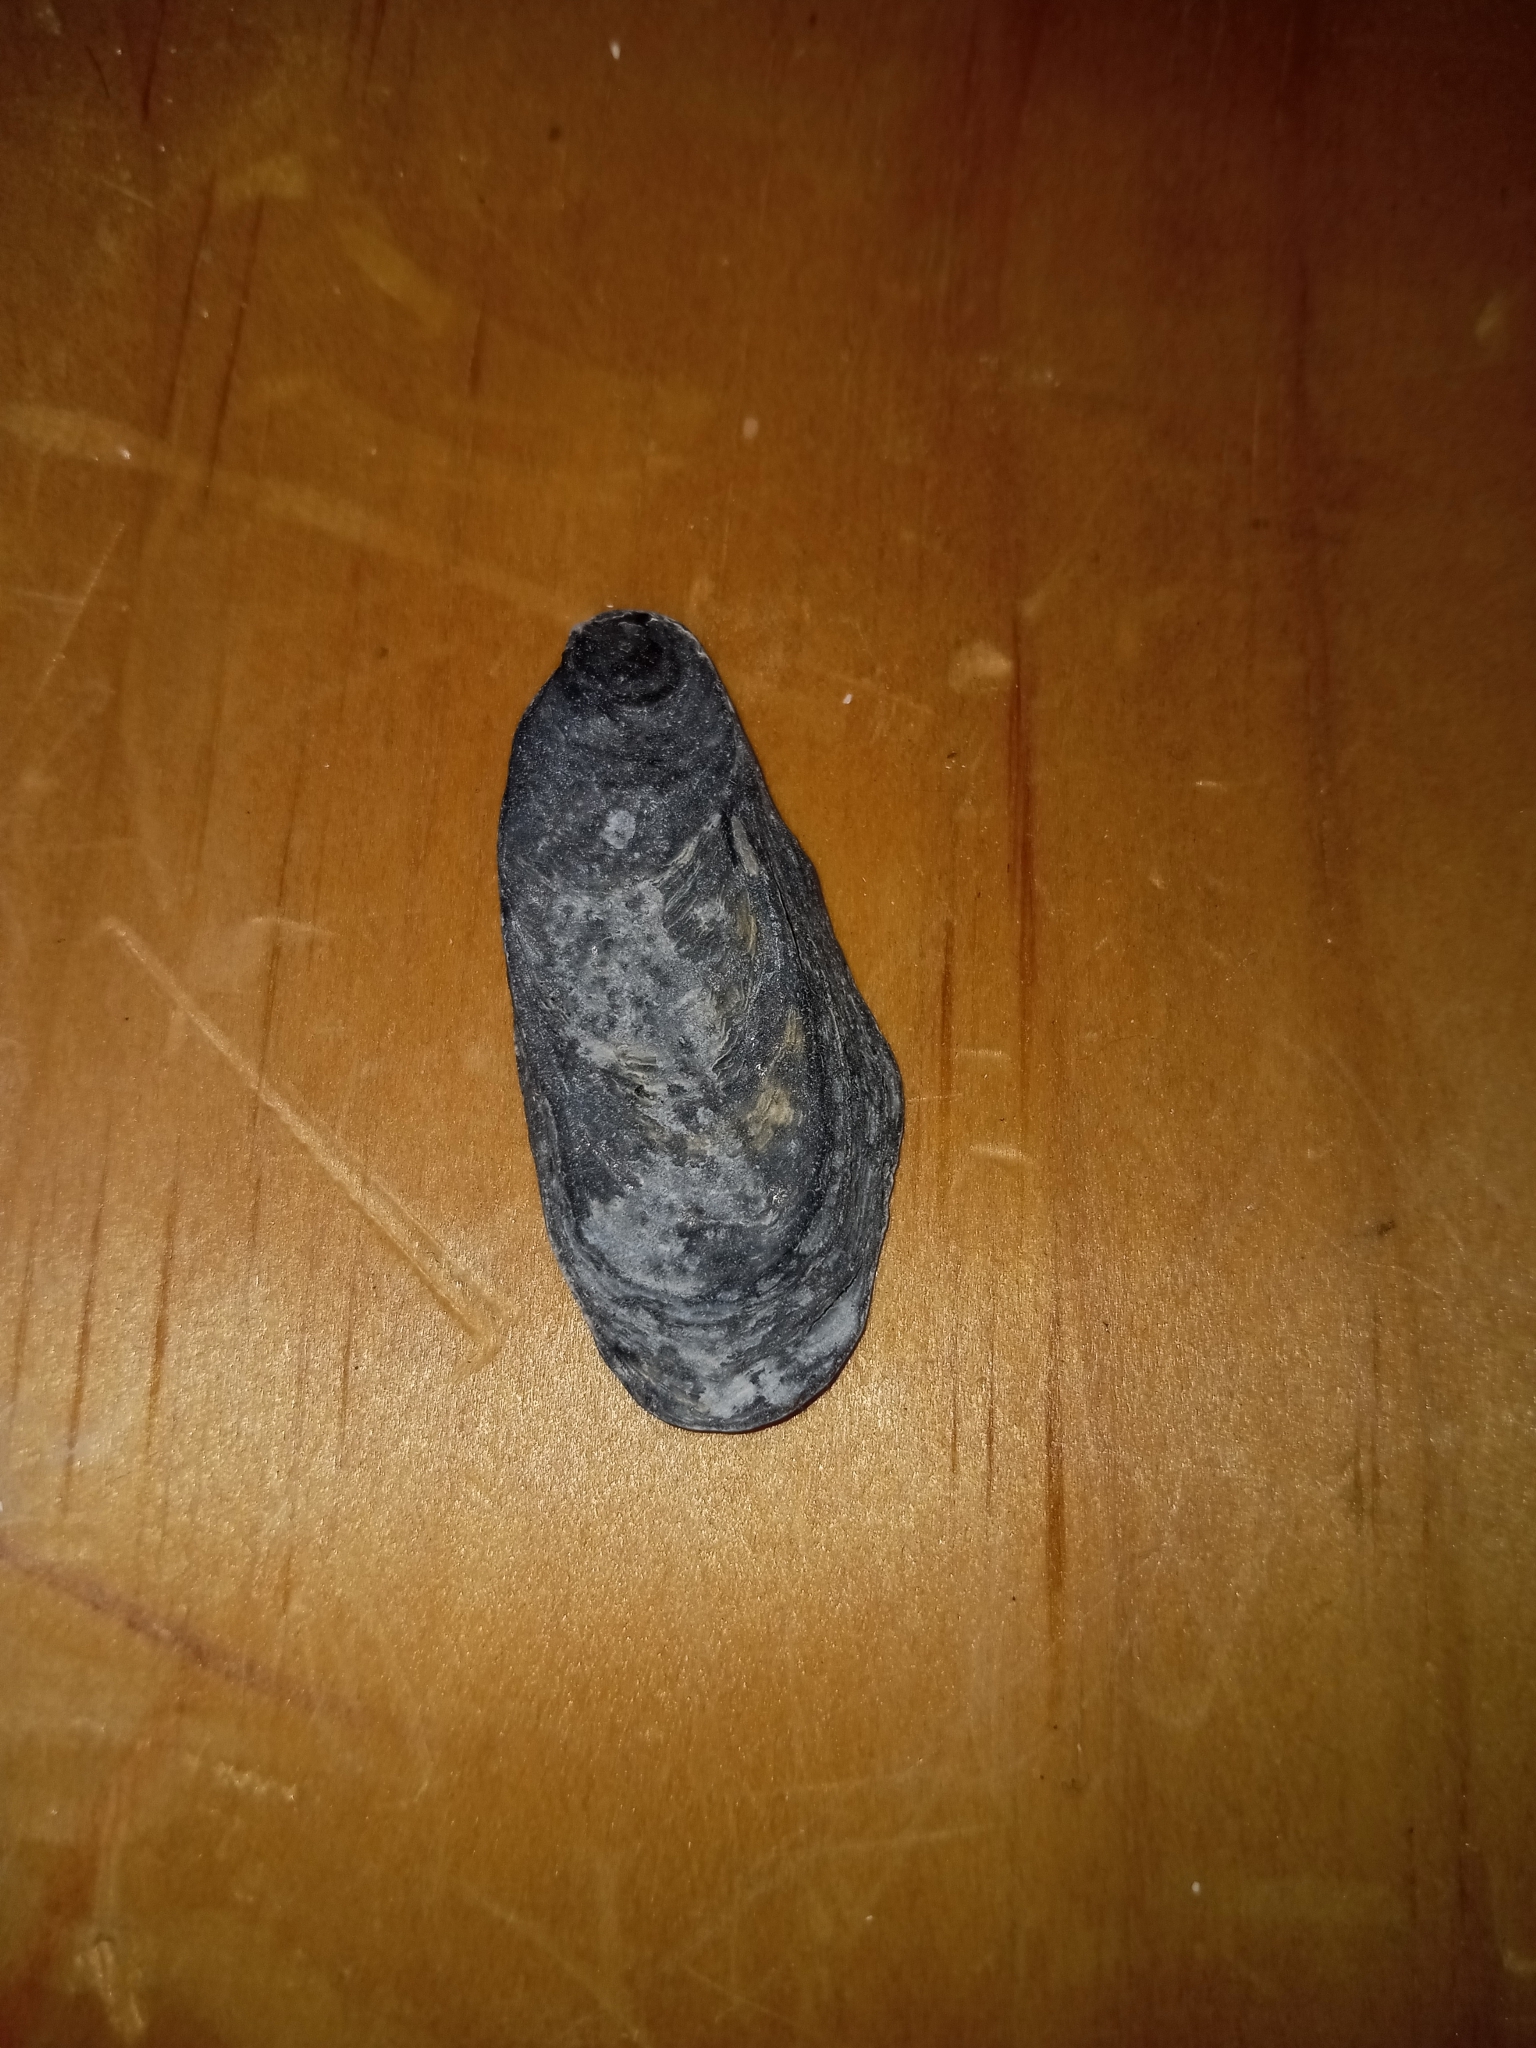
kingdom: Animalia
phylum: Mollusca
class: Bivalvia
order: Ostreida
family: Ostreidae
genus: Crassostrea
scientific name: Crassostrea virginica
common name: American oyster
